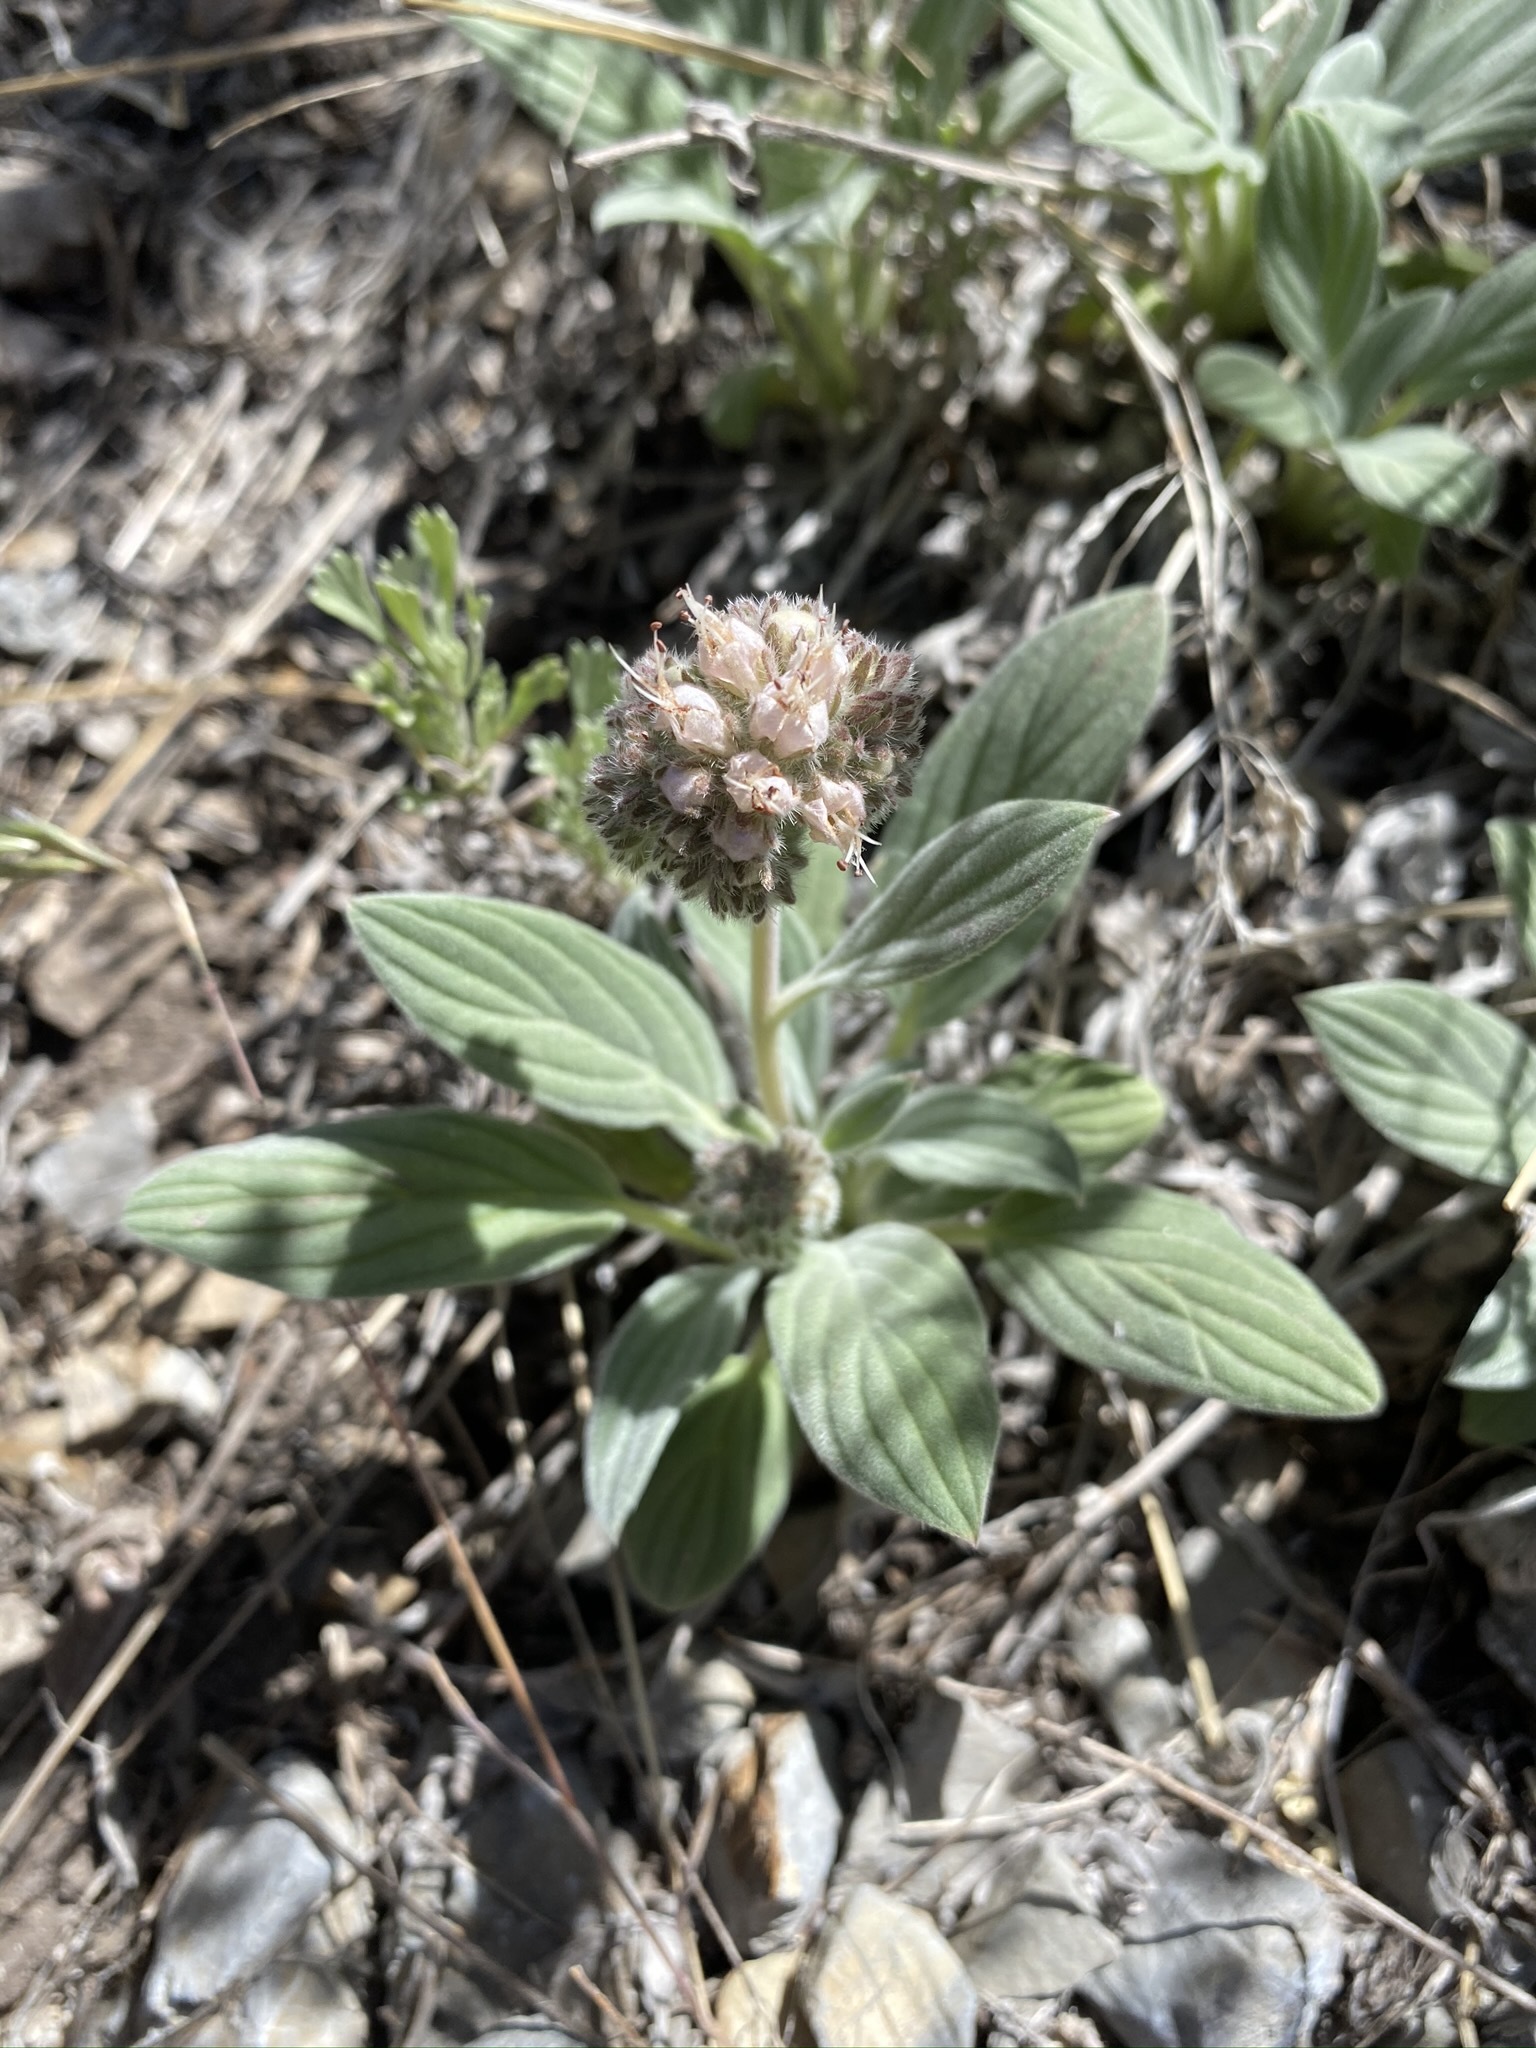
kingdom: Plantae
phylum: Tracheophyta
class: Magnoliopsida
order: Boraginales
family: Hydrophyllaceae
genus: Phacelia
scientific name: Phacelia hastata
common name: Silver-leaved phacelia
